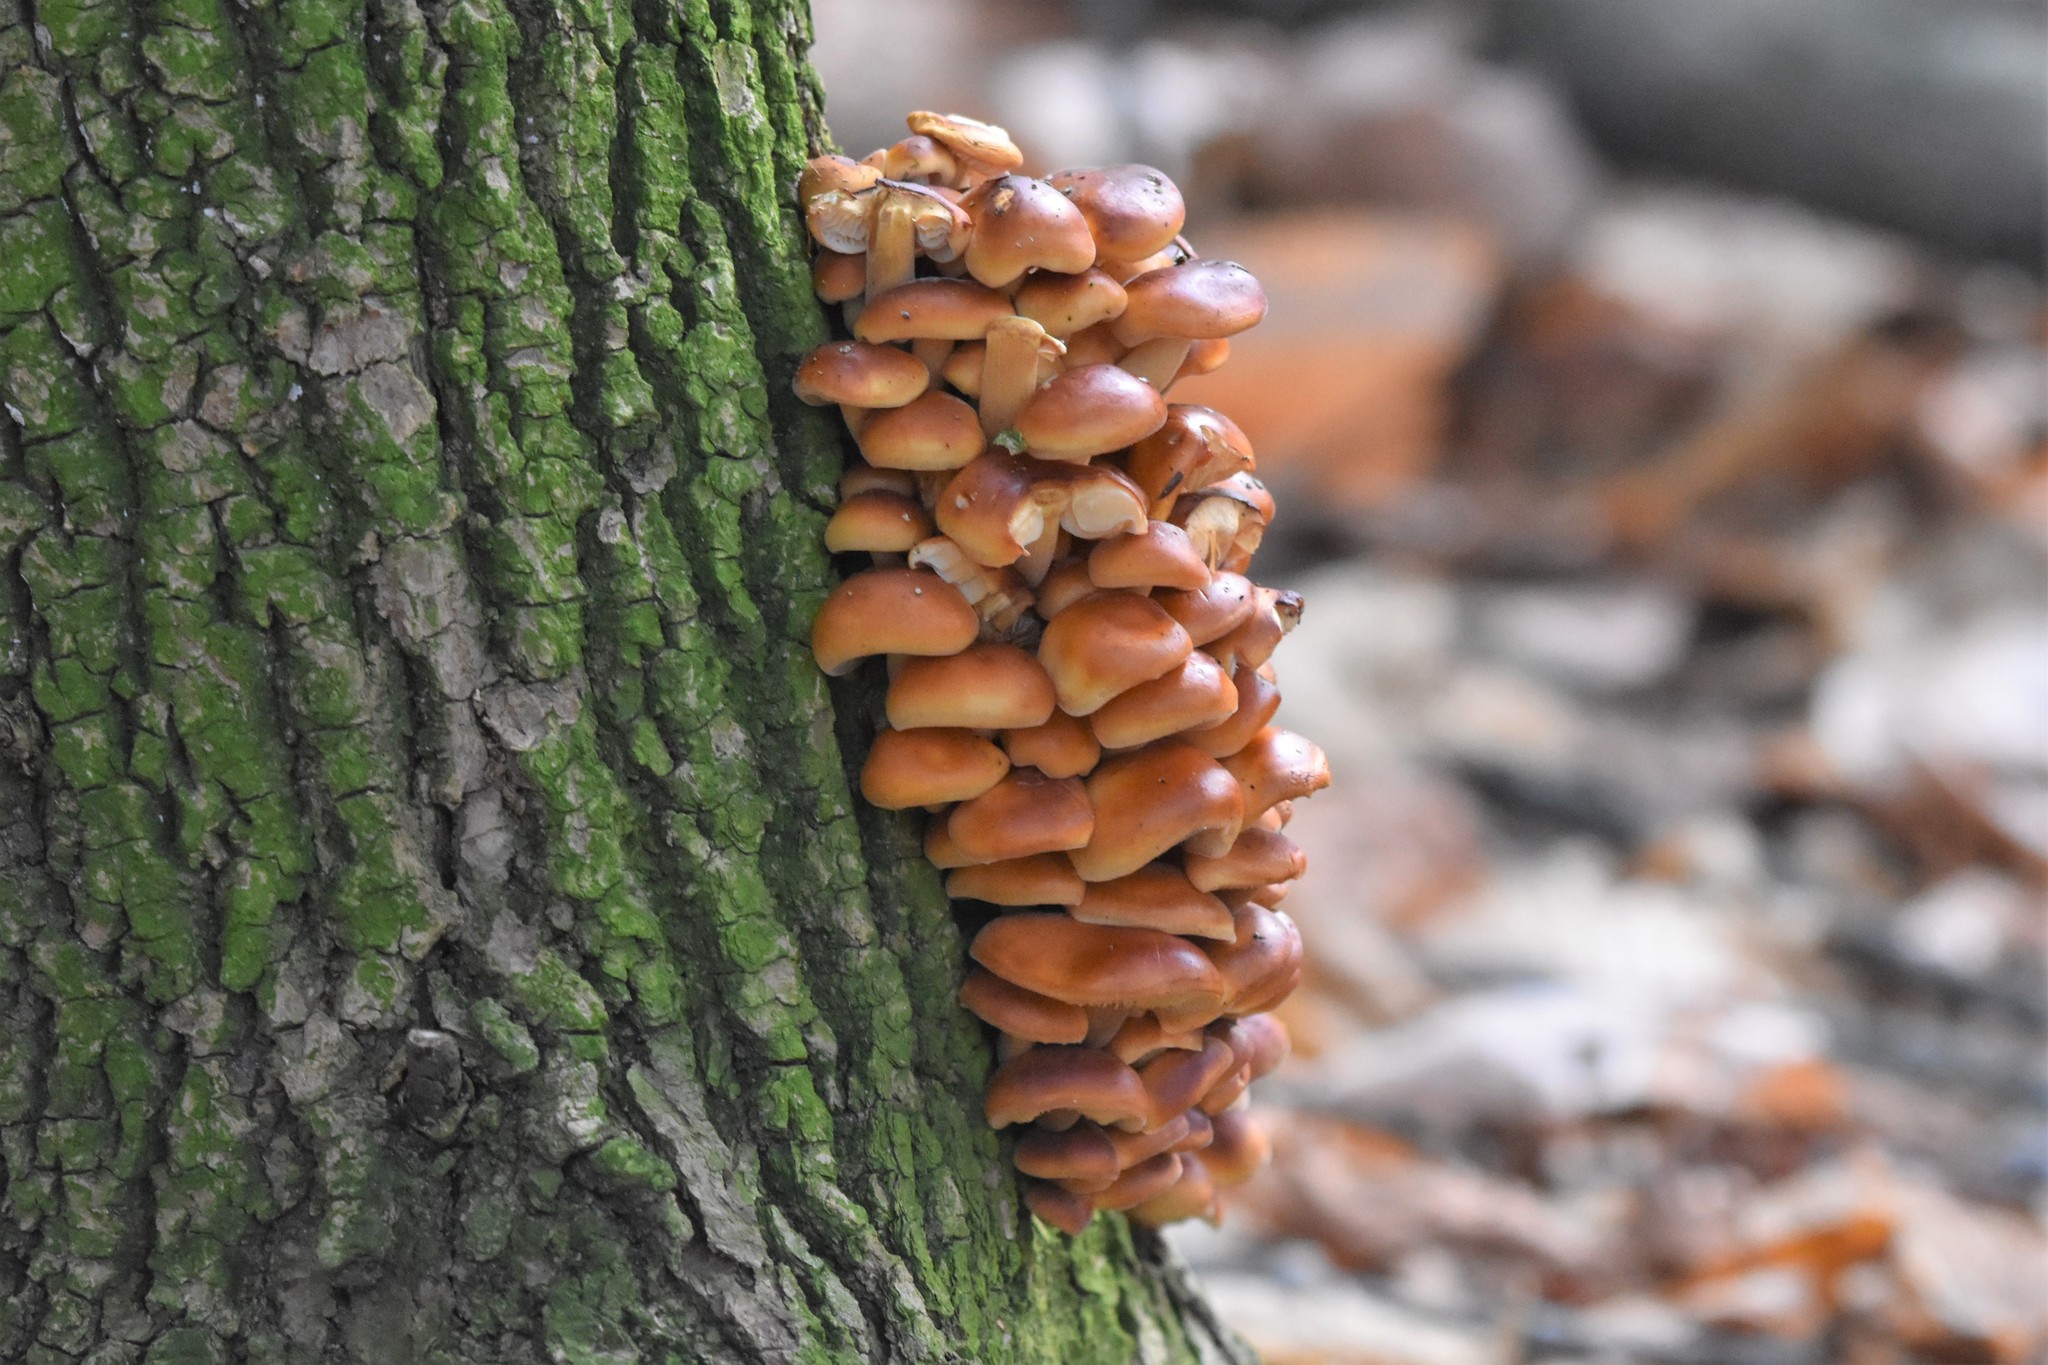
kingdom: Fungi
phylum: Basidiomycota
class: Agaricomycetes
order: Agaricales
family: Physalacriaceae
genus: Flammulina
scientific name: Flammulina velutipes
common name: Velvet shank
